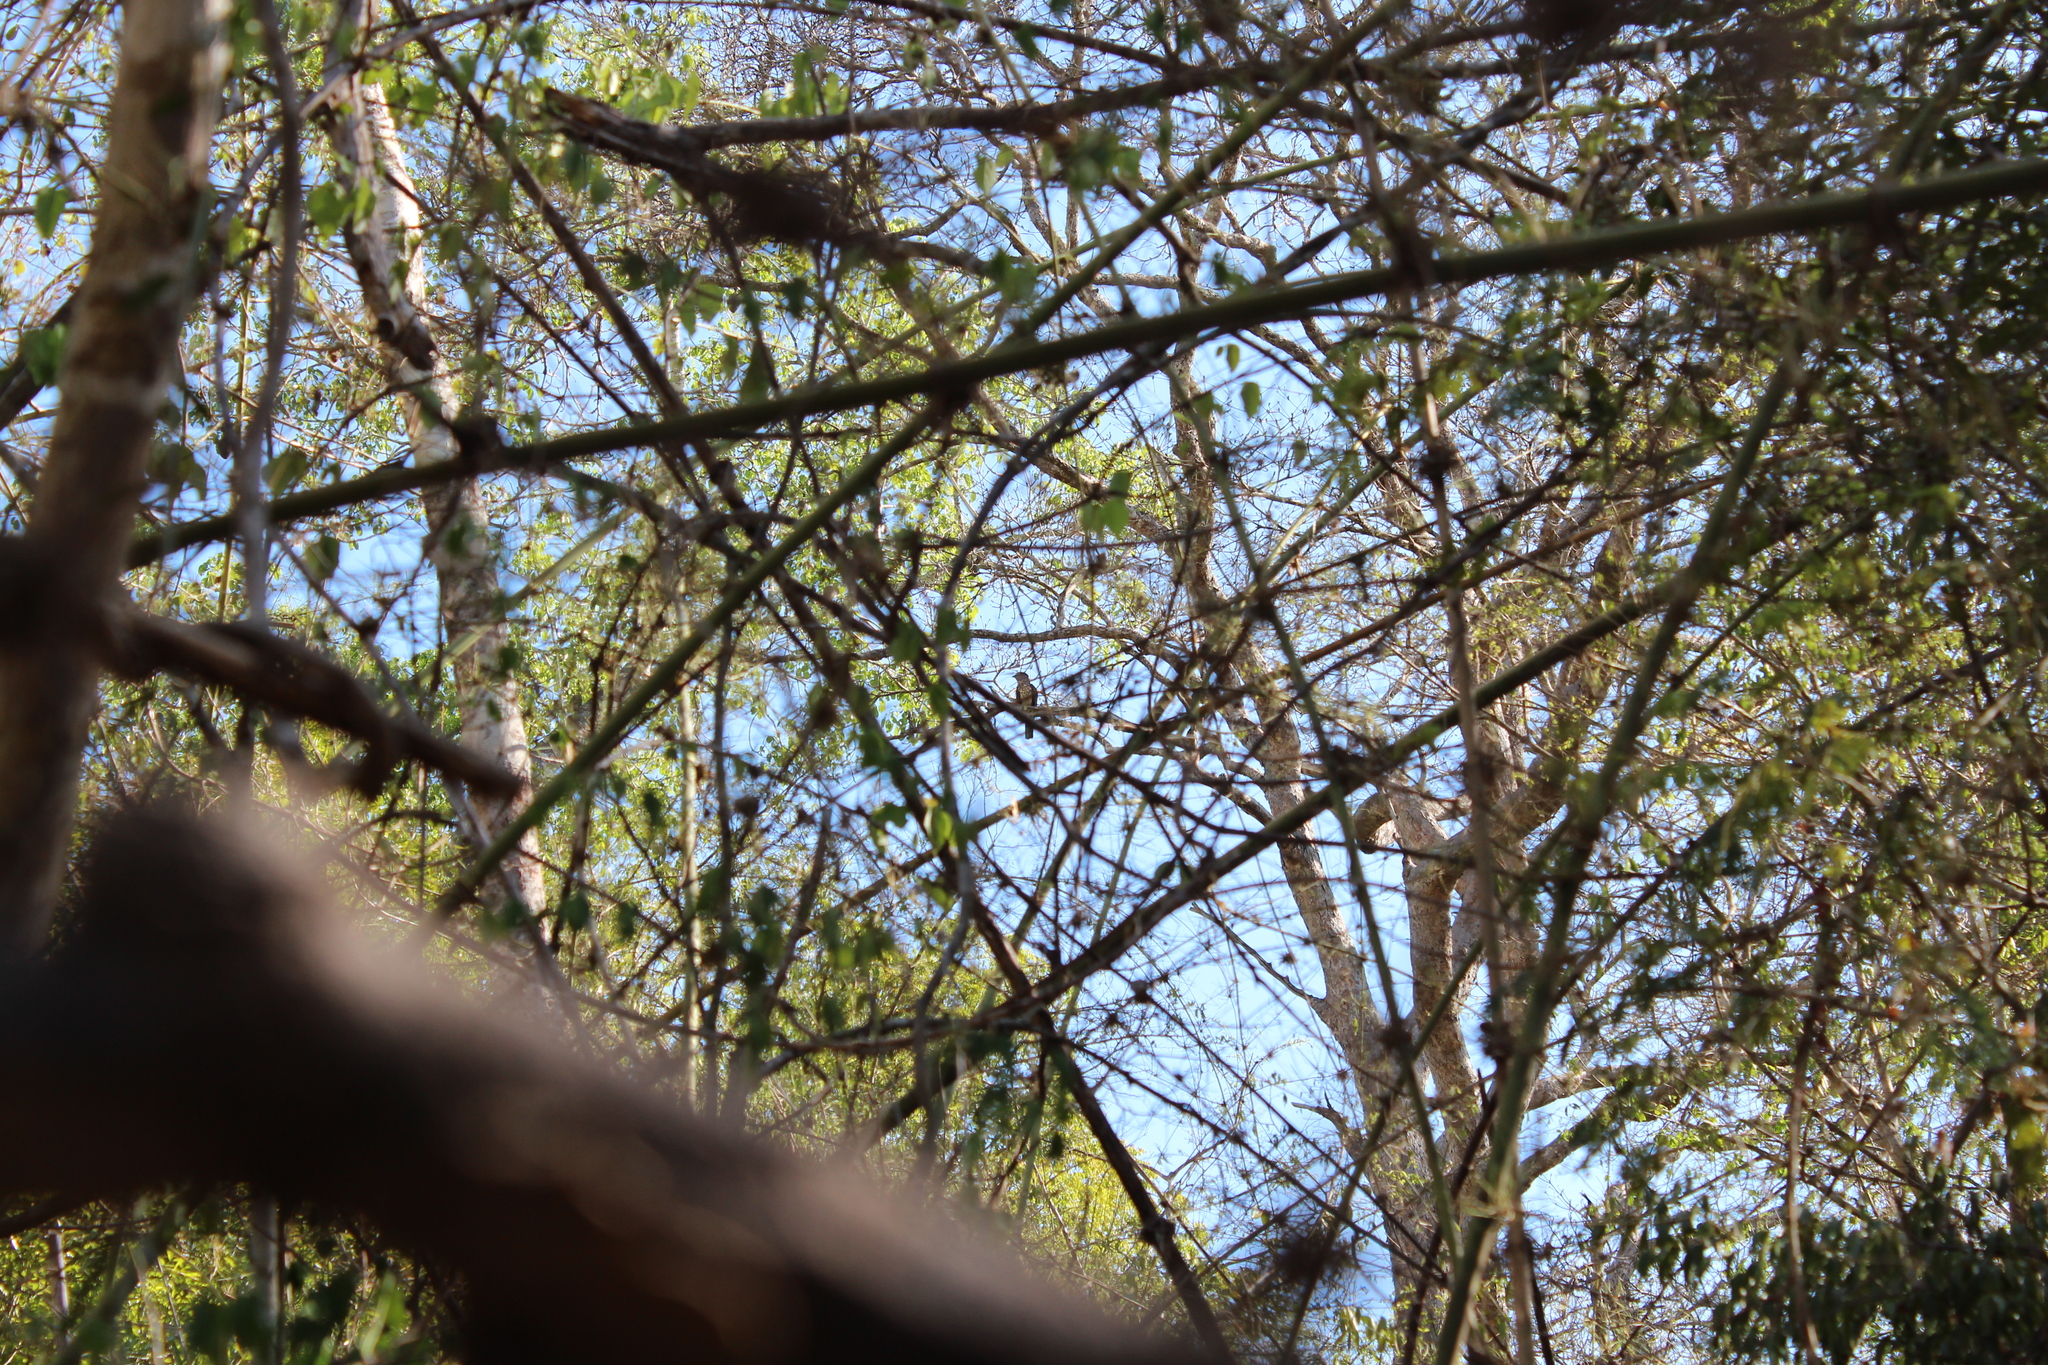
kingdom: Animalia
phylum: Chordata
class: Aves
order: Leptosomiformes
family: Leptosomidae
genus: Leptosomus
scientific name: Leptosomus discolor
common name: Cuckoo roller
